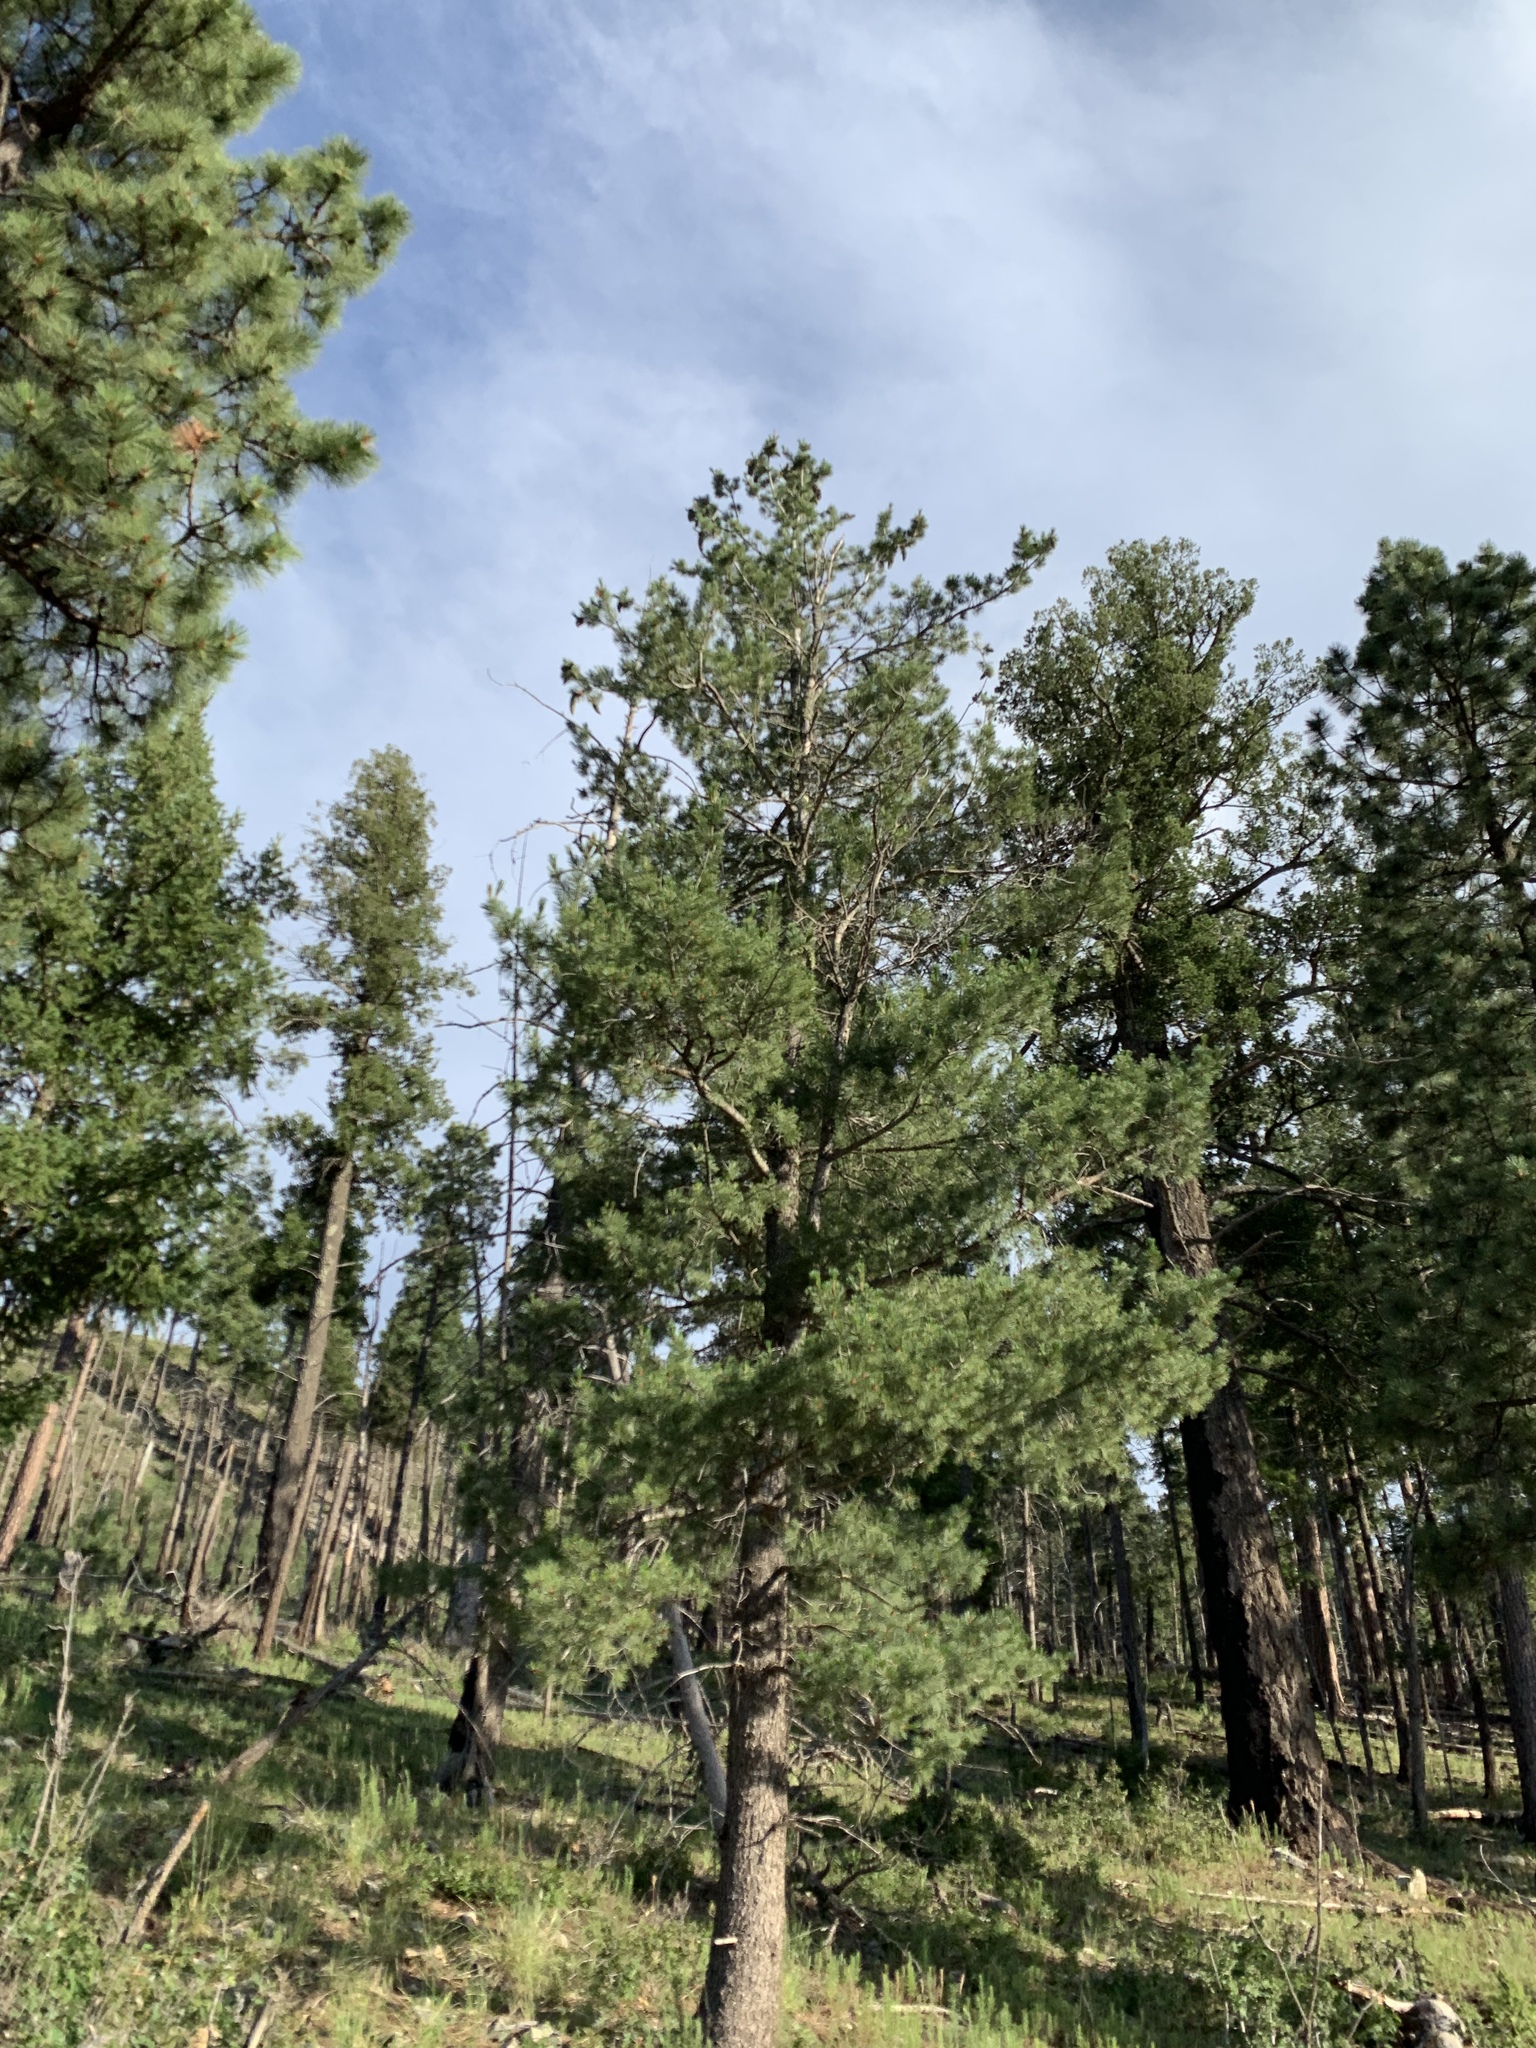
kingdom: Plantae
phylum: Tracheophyta
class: Pinopsida
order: Pinales
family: Pinaceae
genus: Pinus
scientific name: Pinus strobiformis
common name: Southwestern white pine
